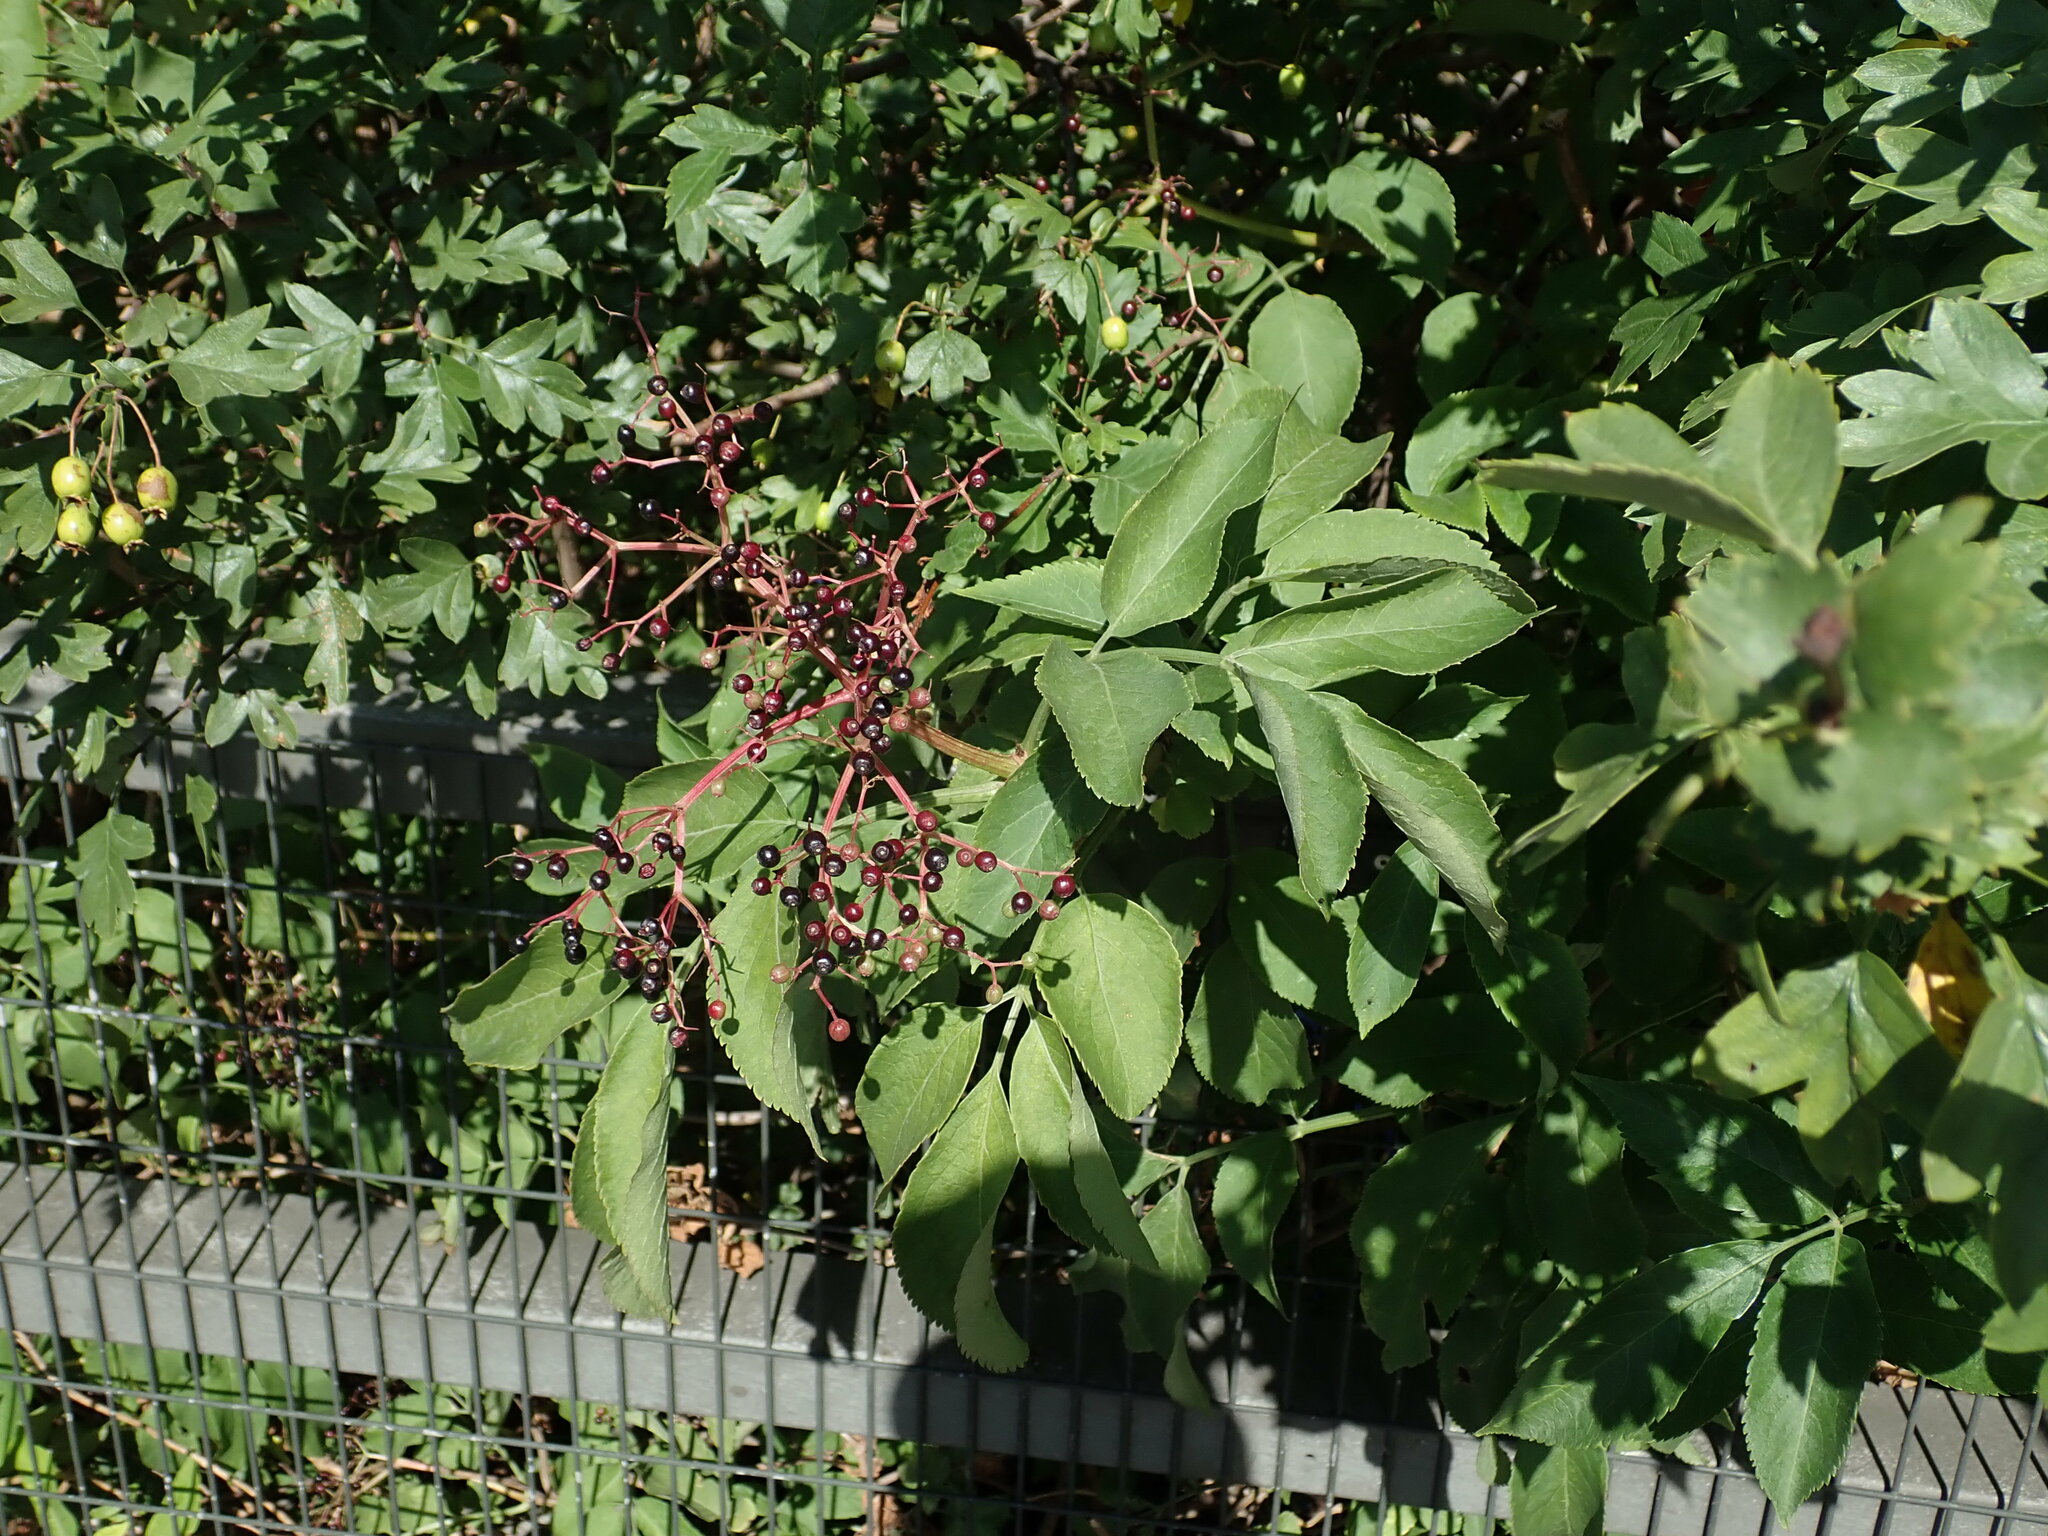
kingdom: Plantae
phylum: Tracheophyta
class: Magnoliopsida
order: Dipsacales
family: Viburnaceae
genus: Sambucus
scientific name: Sambucus nigra
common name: Elder
